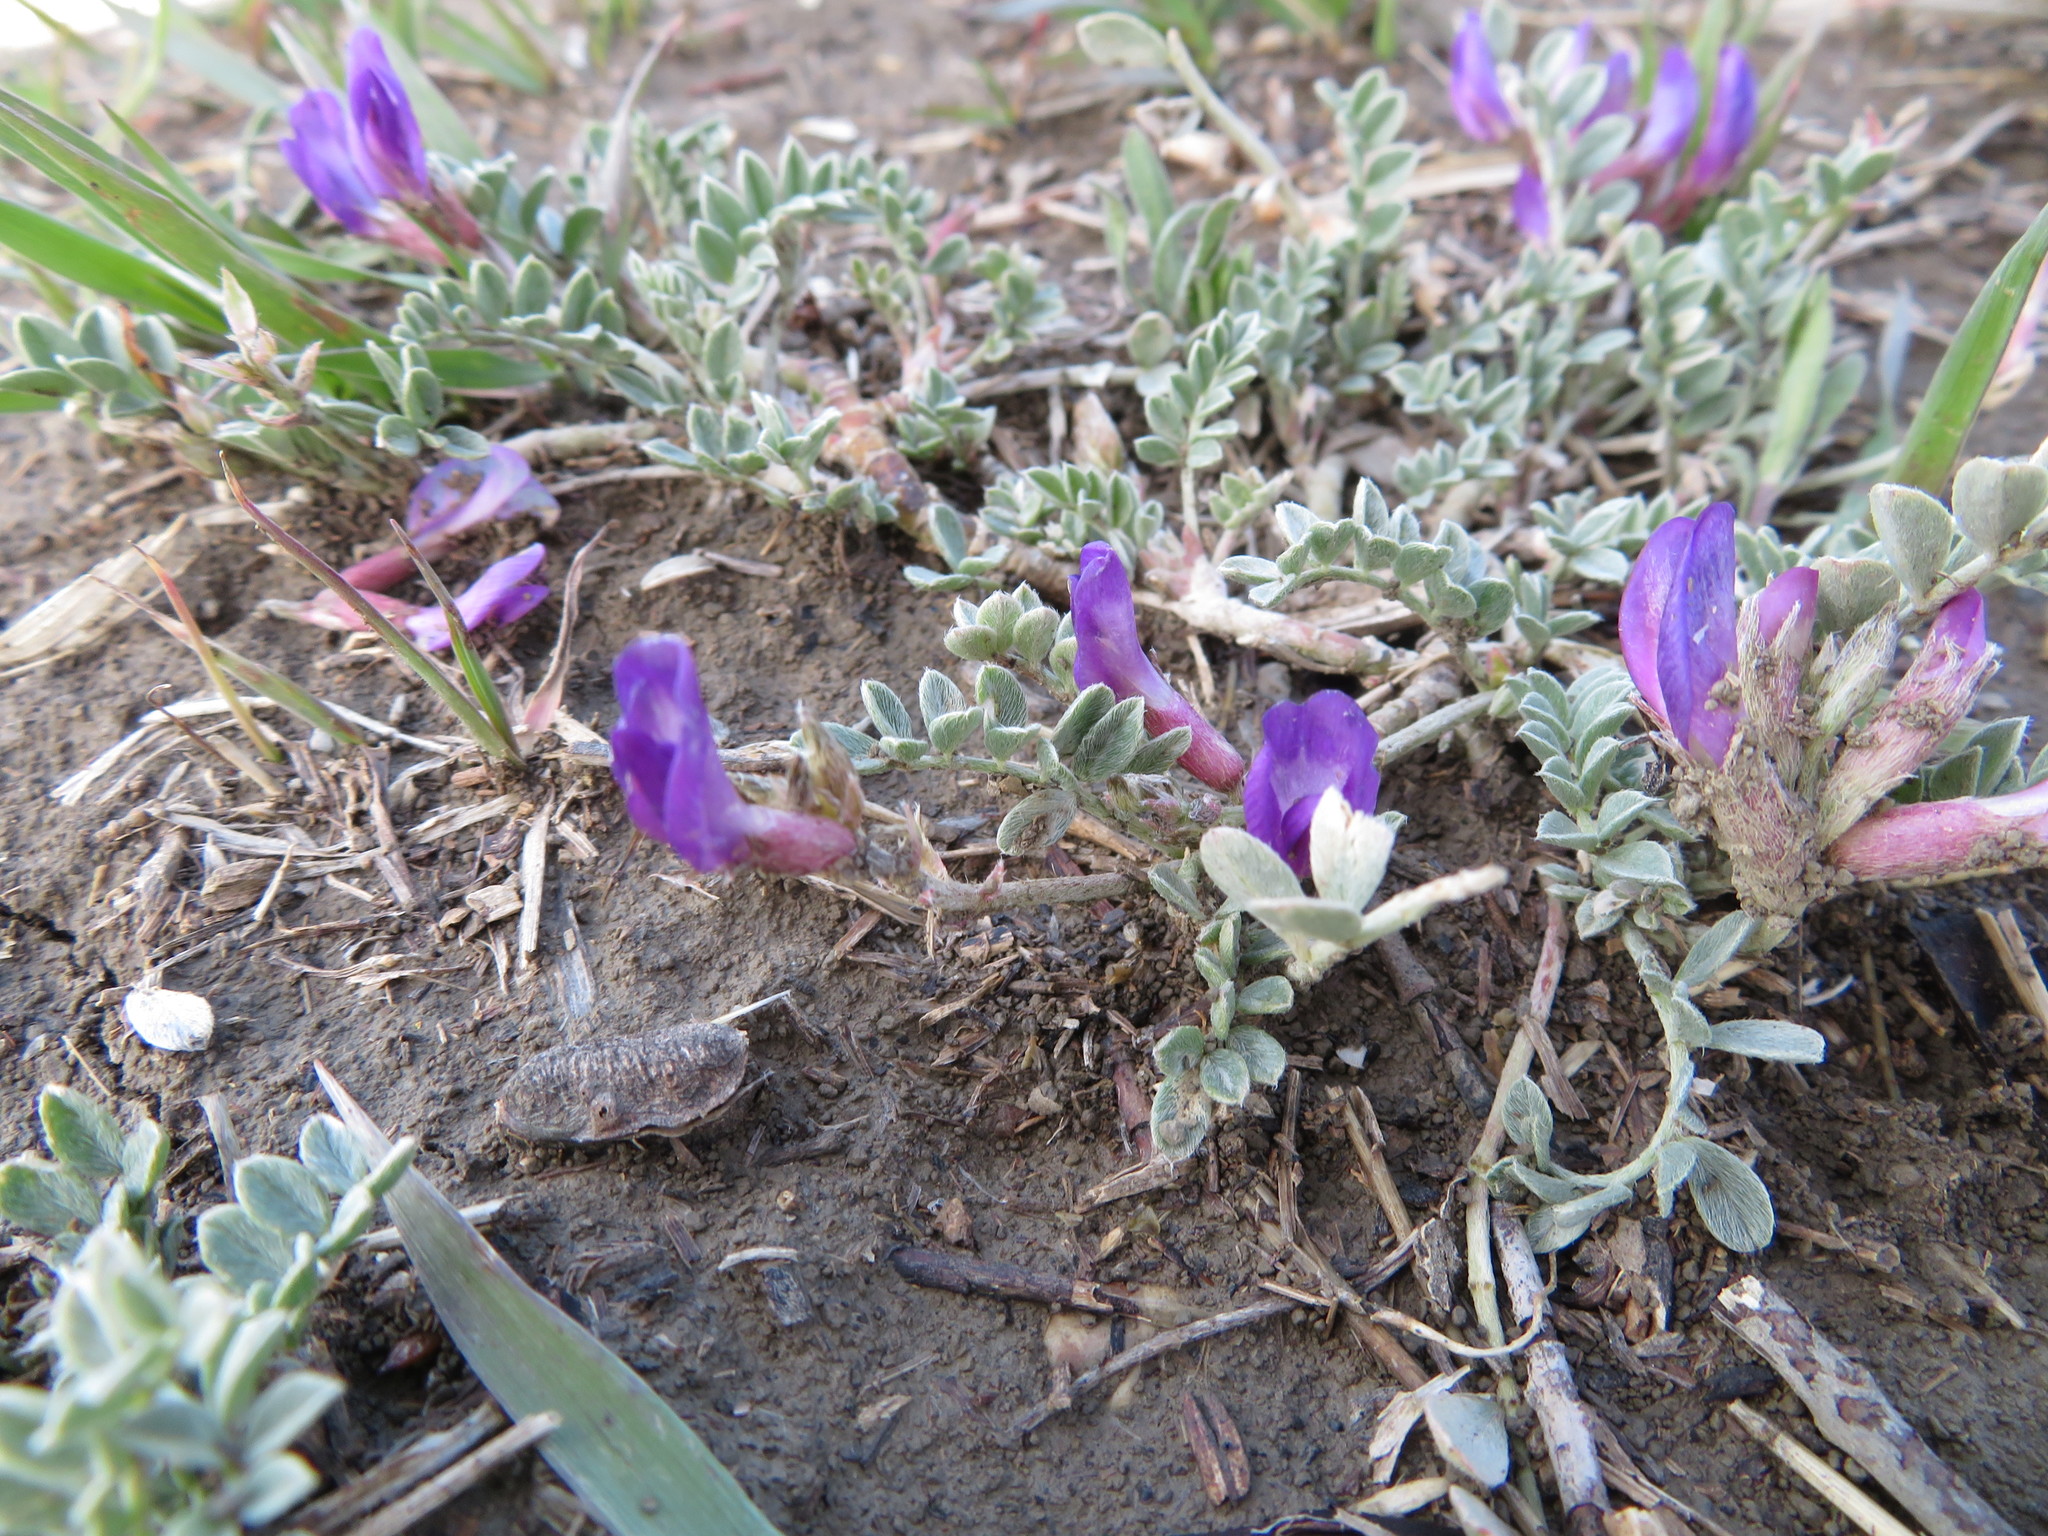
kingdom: Plantae
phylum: Tracheophyta
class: Magnoliopsida
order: Fabales
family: Fabaceae
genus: Astragalus
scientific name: Astragalus missouriensis
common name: Missouri milk-vetch
